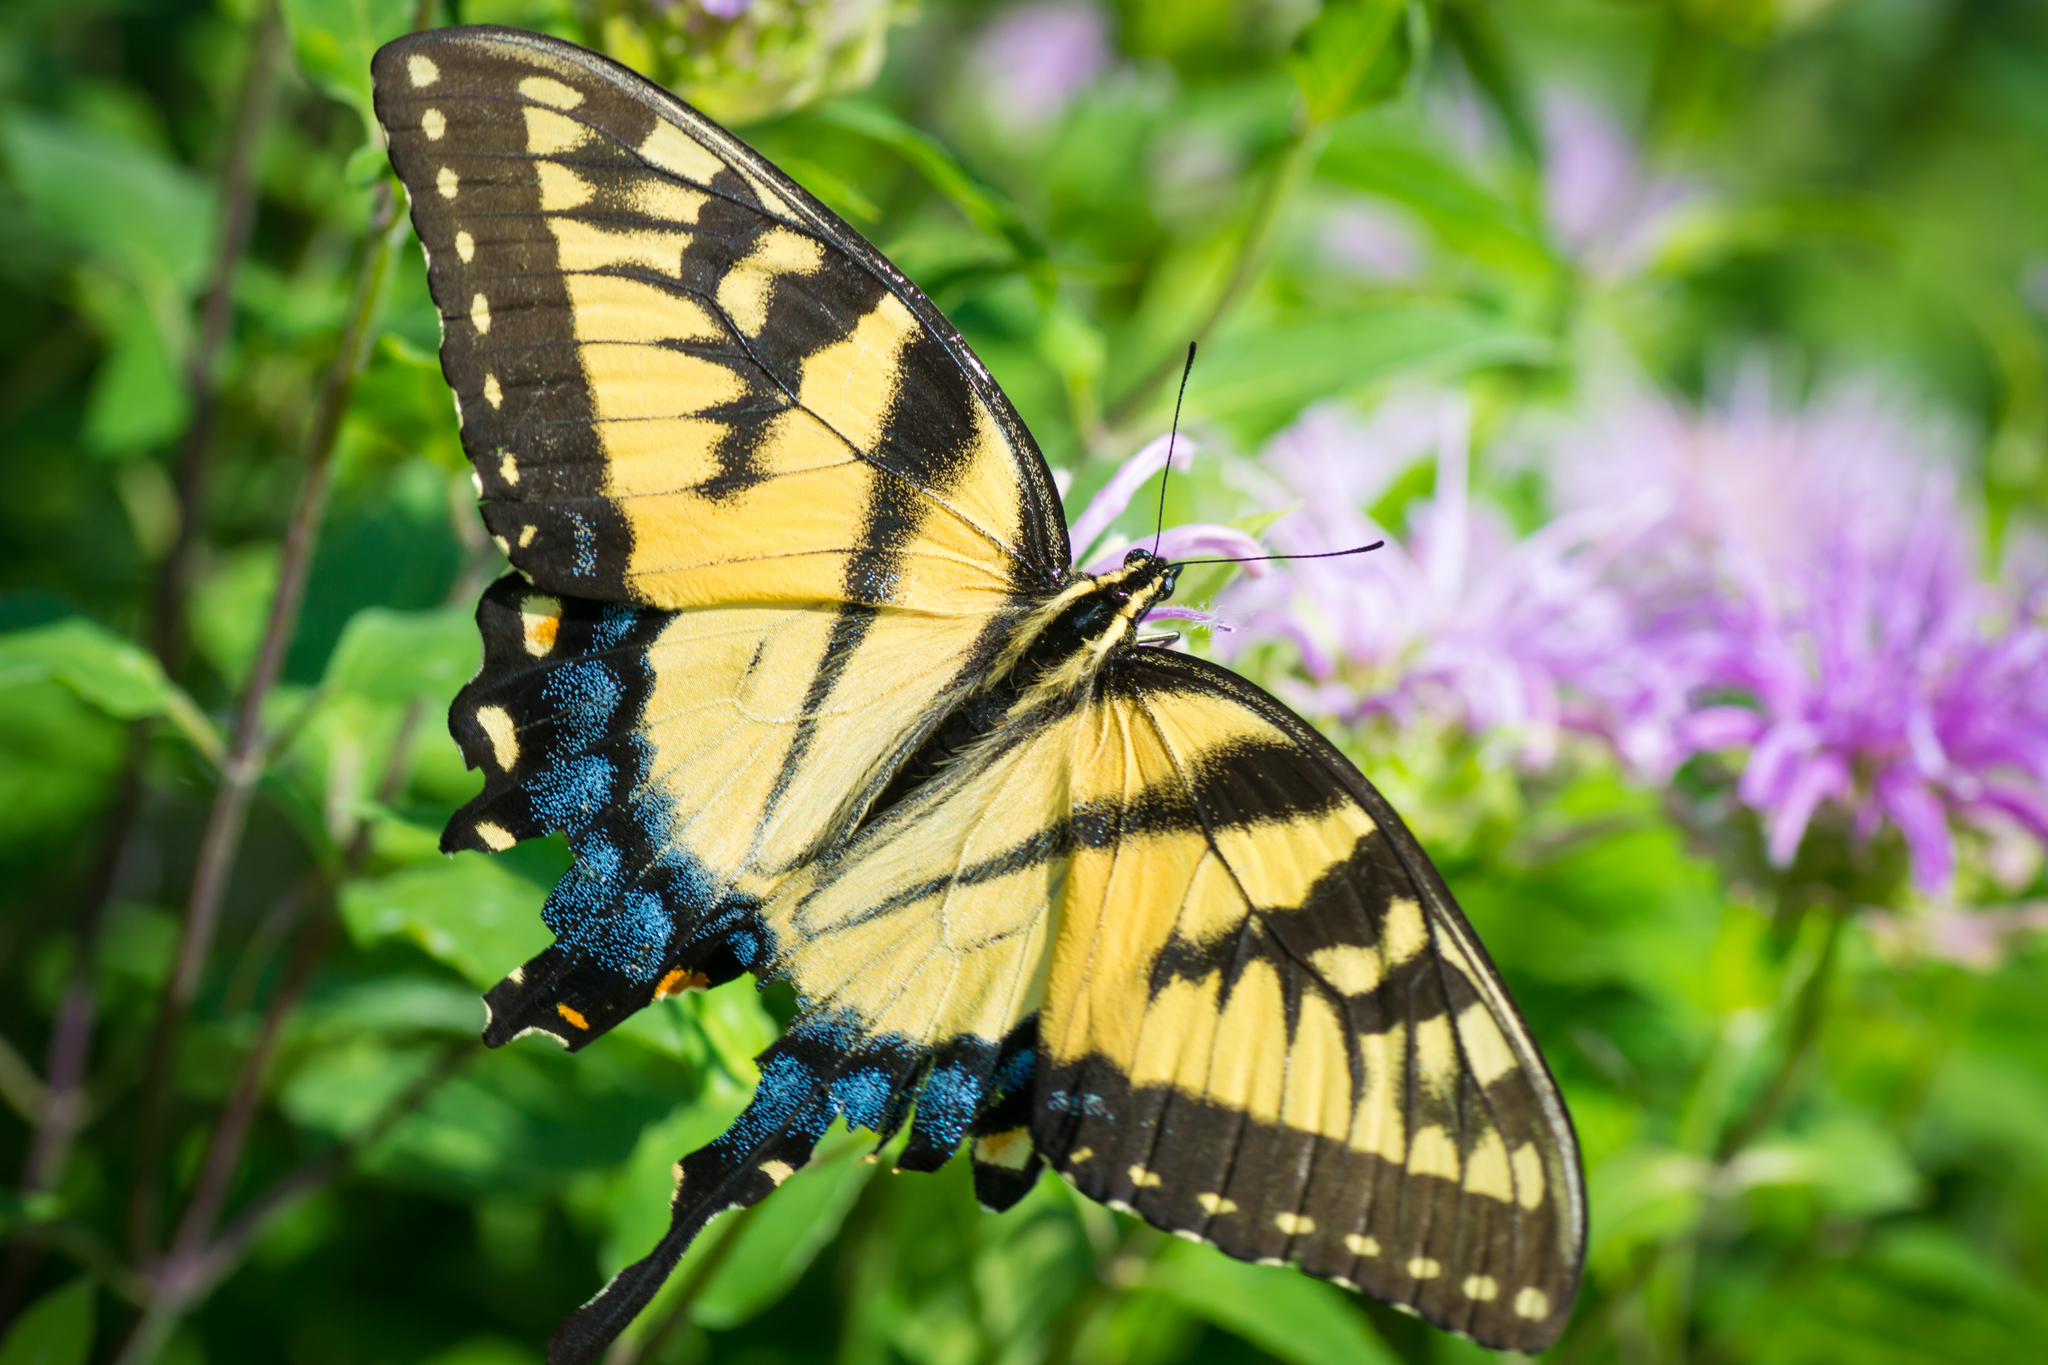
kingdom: Animalia
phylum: Arthropoda
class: Insecta
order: Lepidoptera
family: Papilionidae
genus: Papilio
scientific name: Papilio glaucus
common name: Tiger swallowtail
